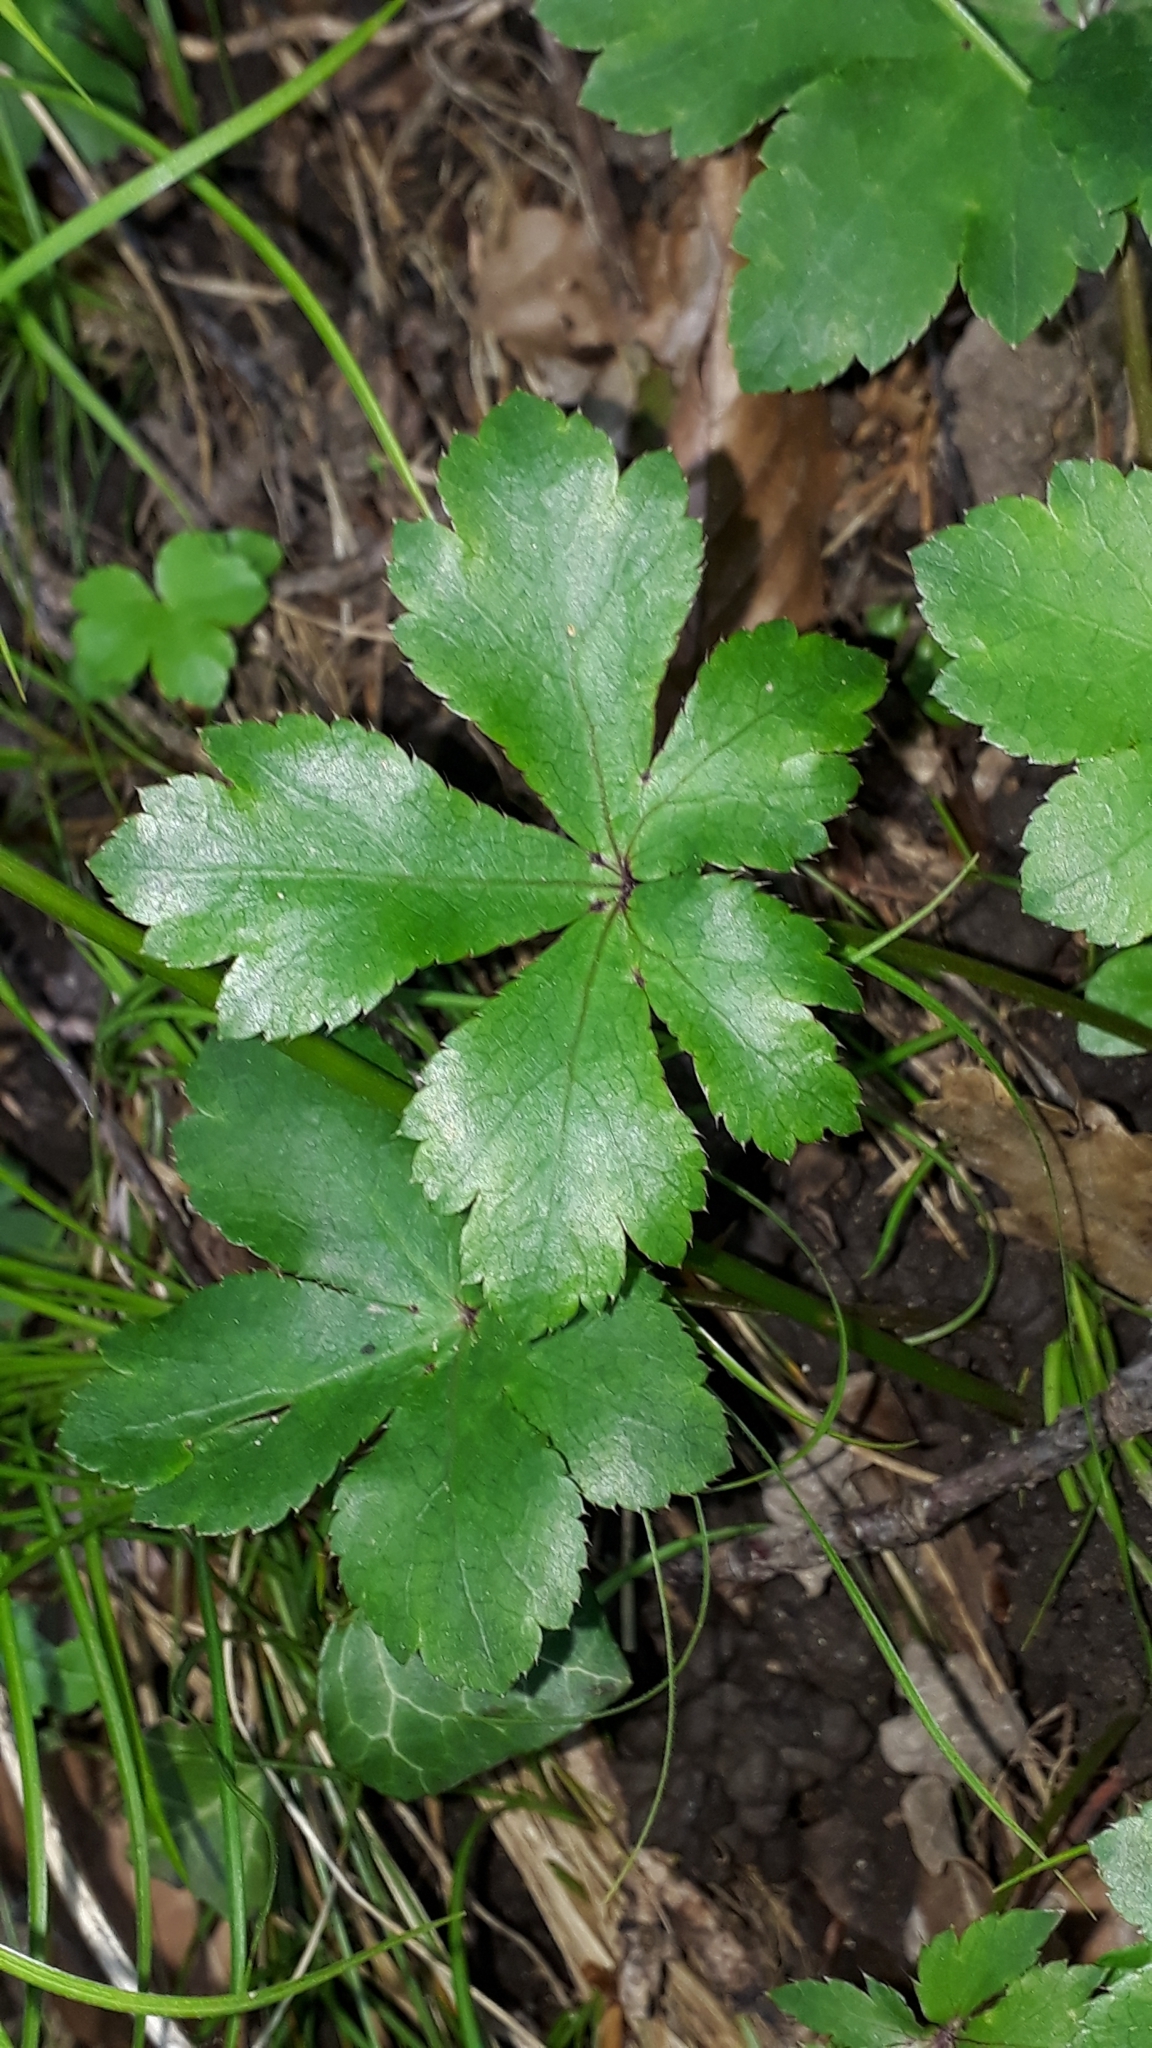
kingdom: Plantae
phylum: Tracheophyta
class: Magnoliopsida
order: Apiales
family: Apiaceae
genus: Sanicula
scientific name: Sanicula europaea
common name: Sanicle
